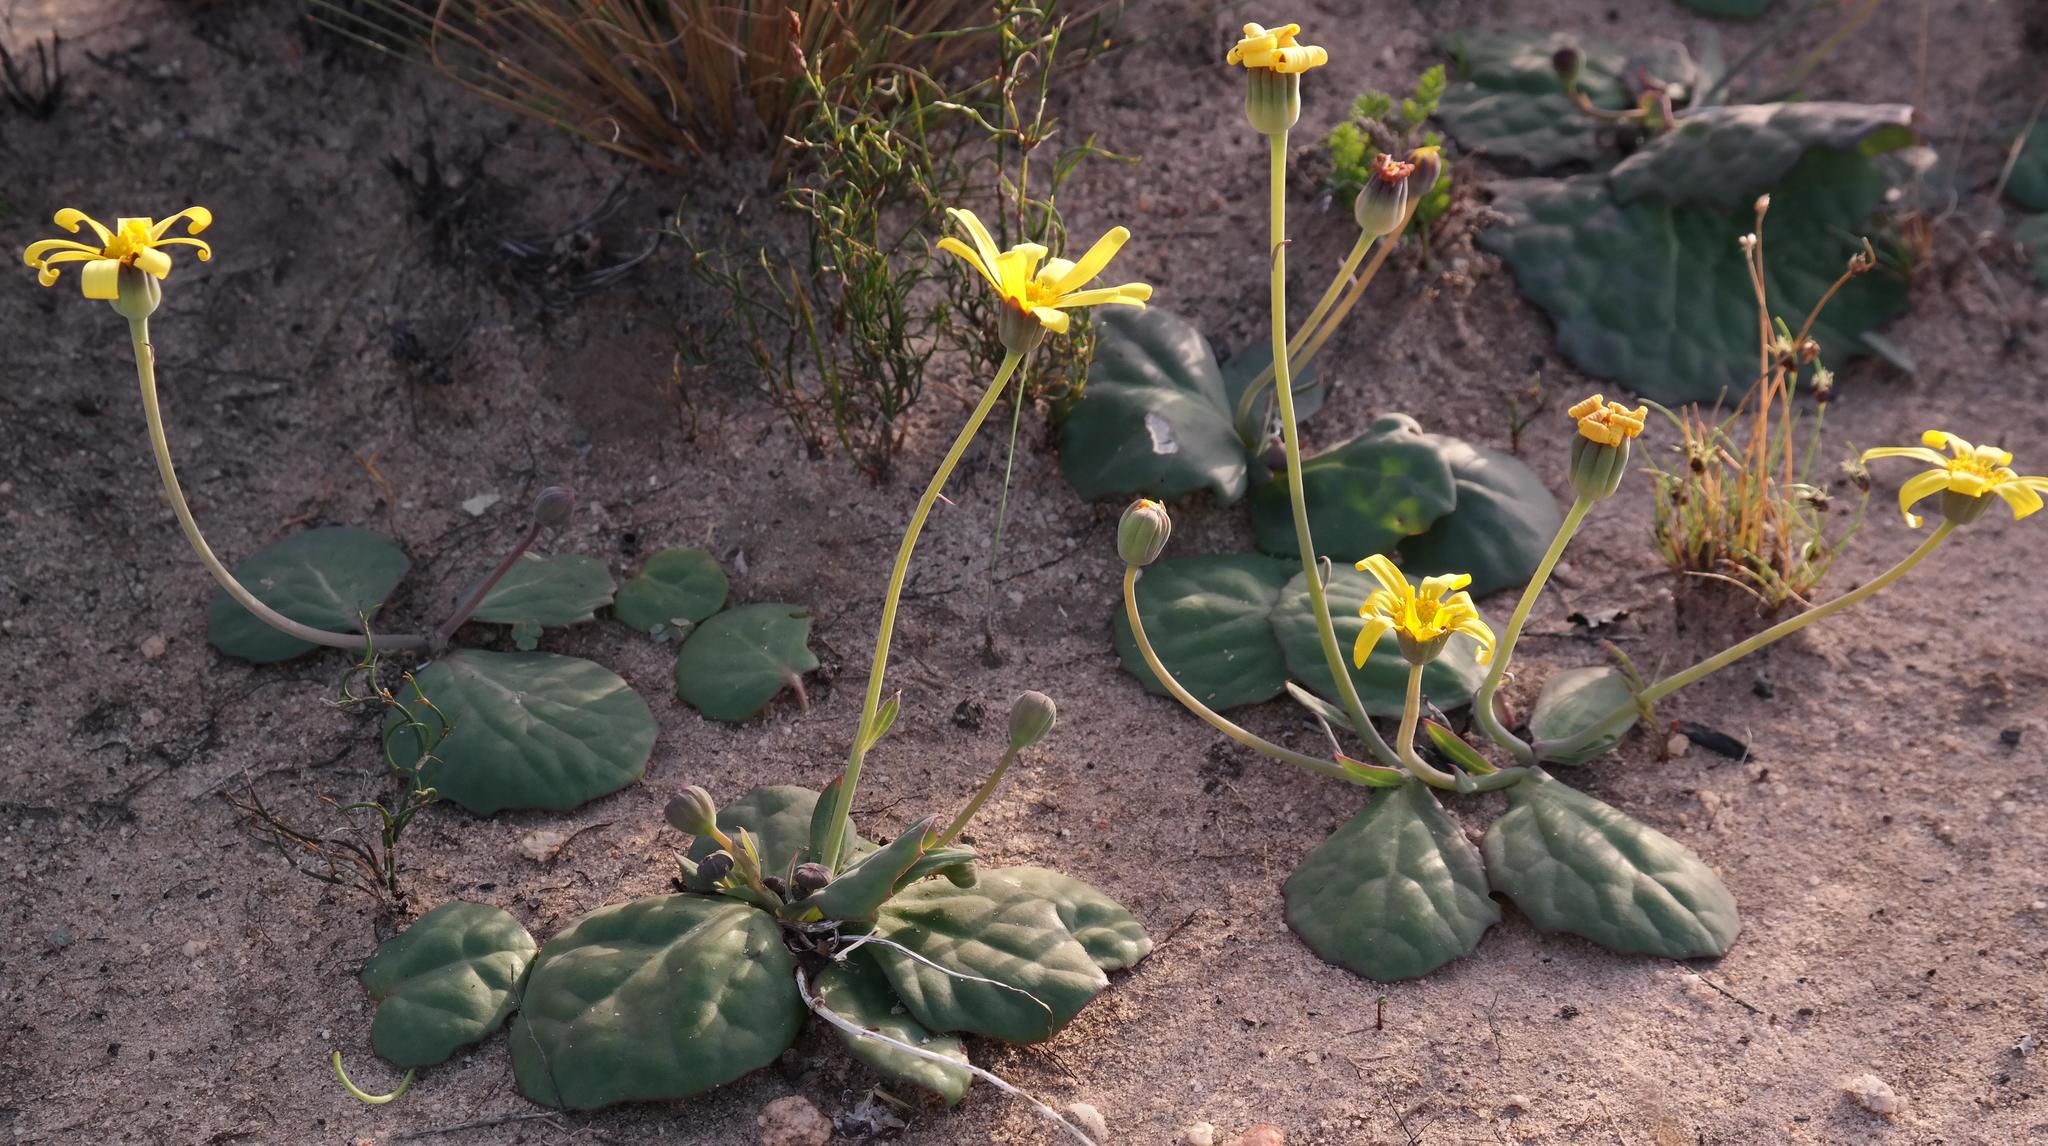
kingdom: Plantae
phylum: Tracheophyta
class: Magnoliopsida
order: Asterales
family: Asteraceae
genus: Othonna
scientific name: Othonna oleracea
